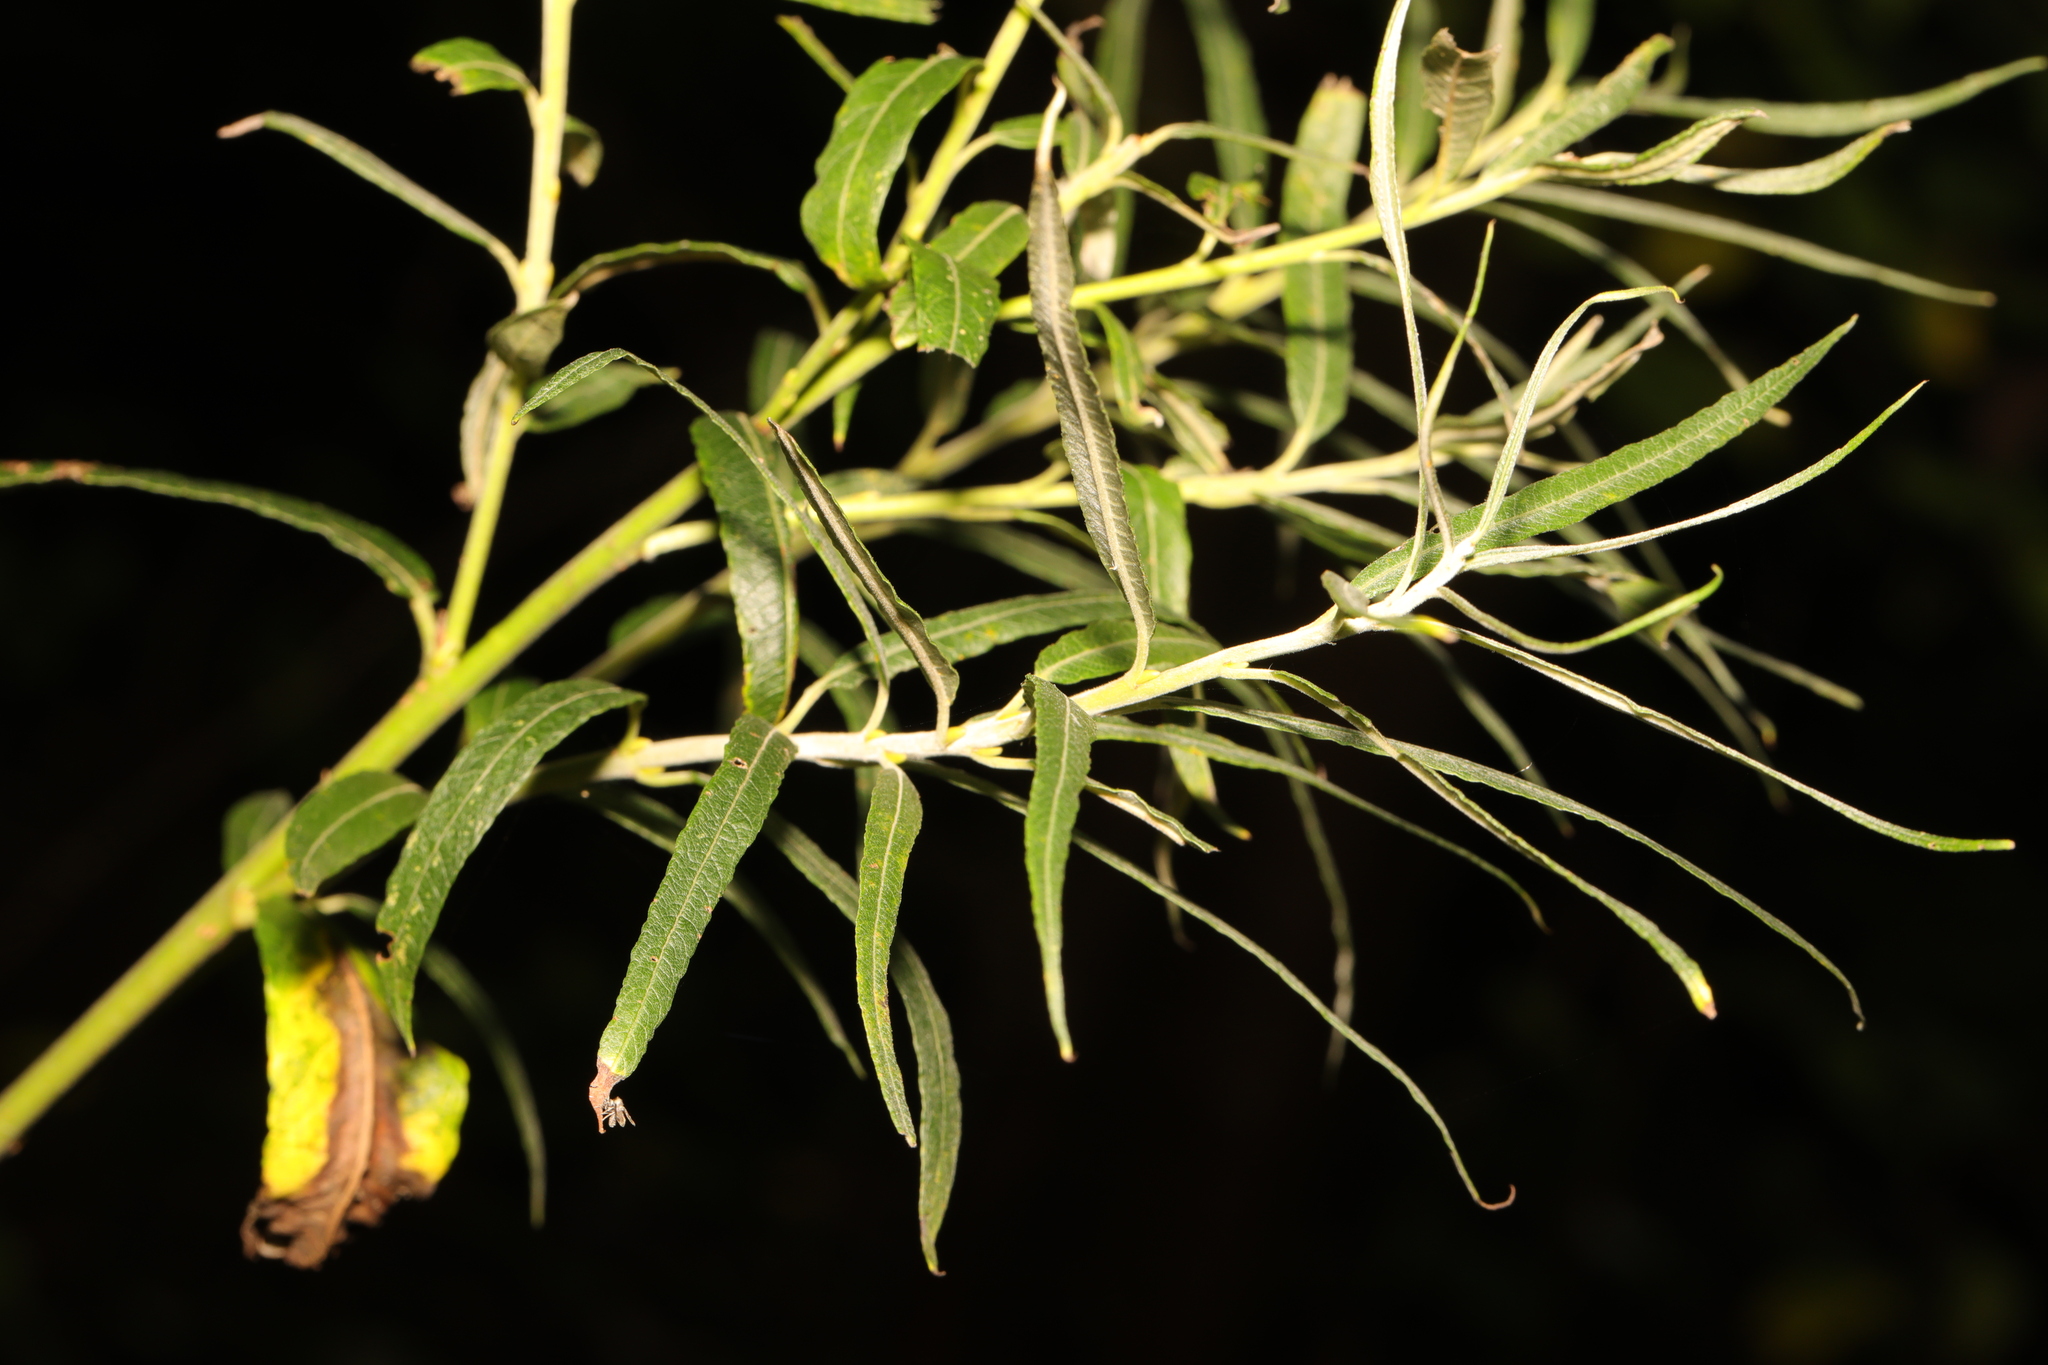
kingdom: Plantae
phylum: Tracheophyta
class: Magnoliopsida
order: Malpighiales
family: Salicaceae
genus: Salix
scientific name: Salix viminalis
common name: Osier
